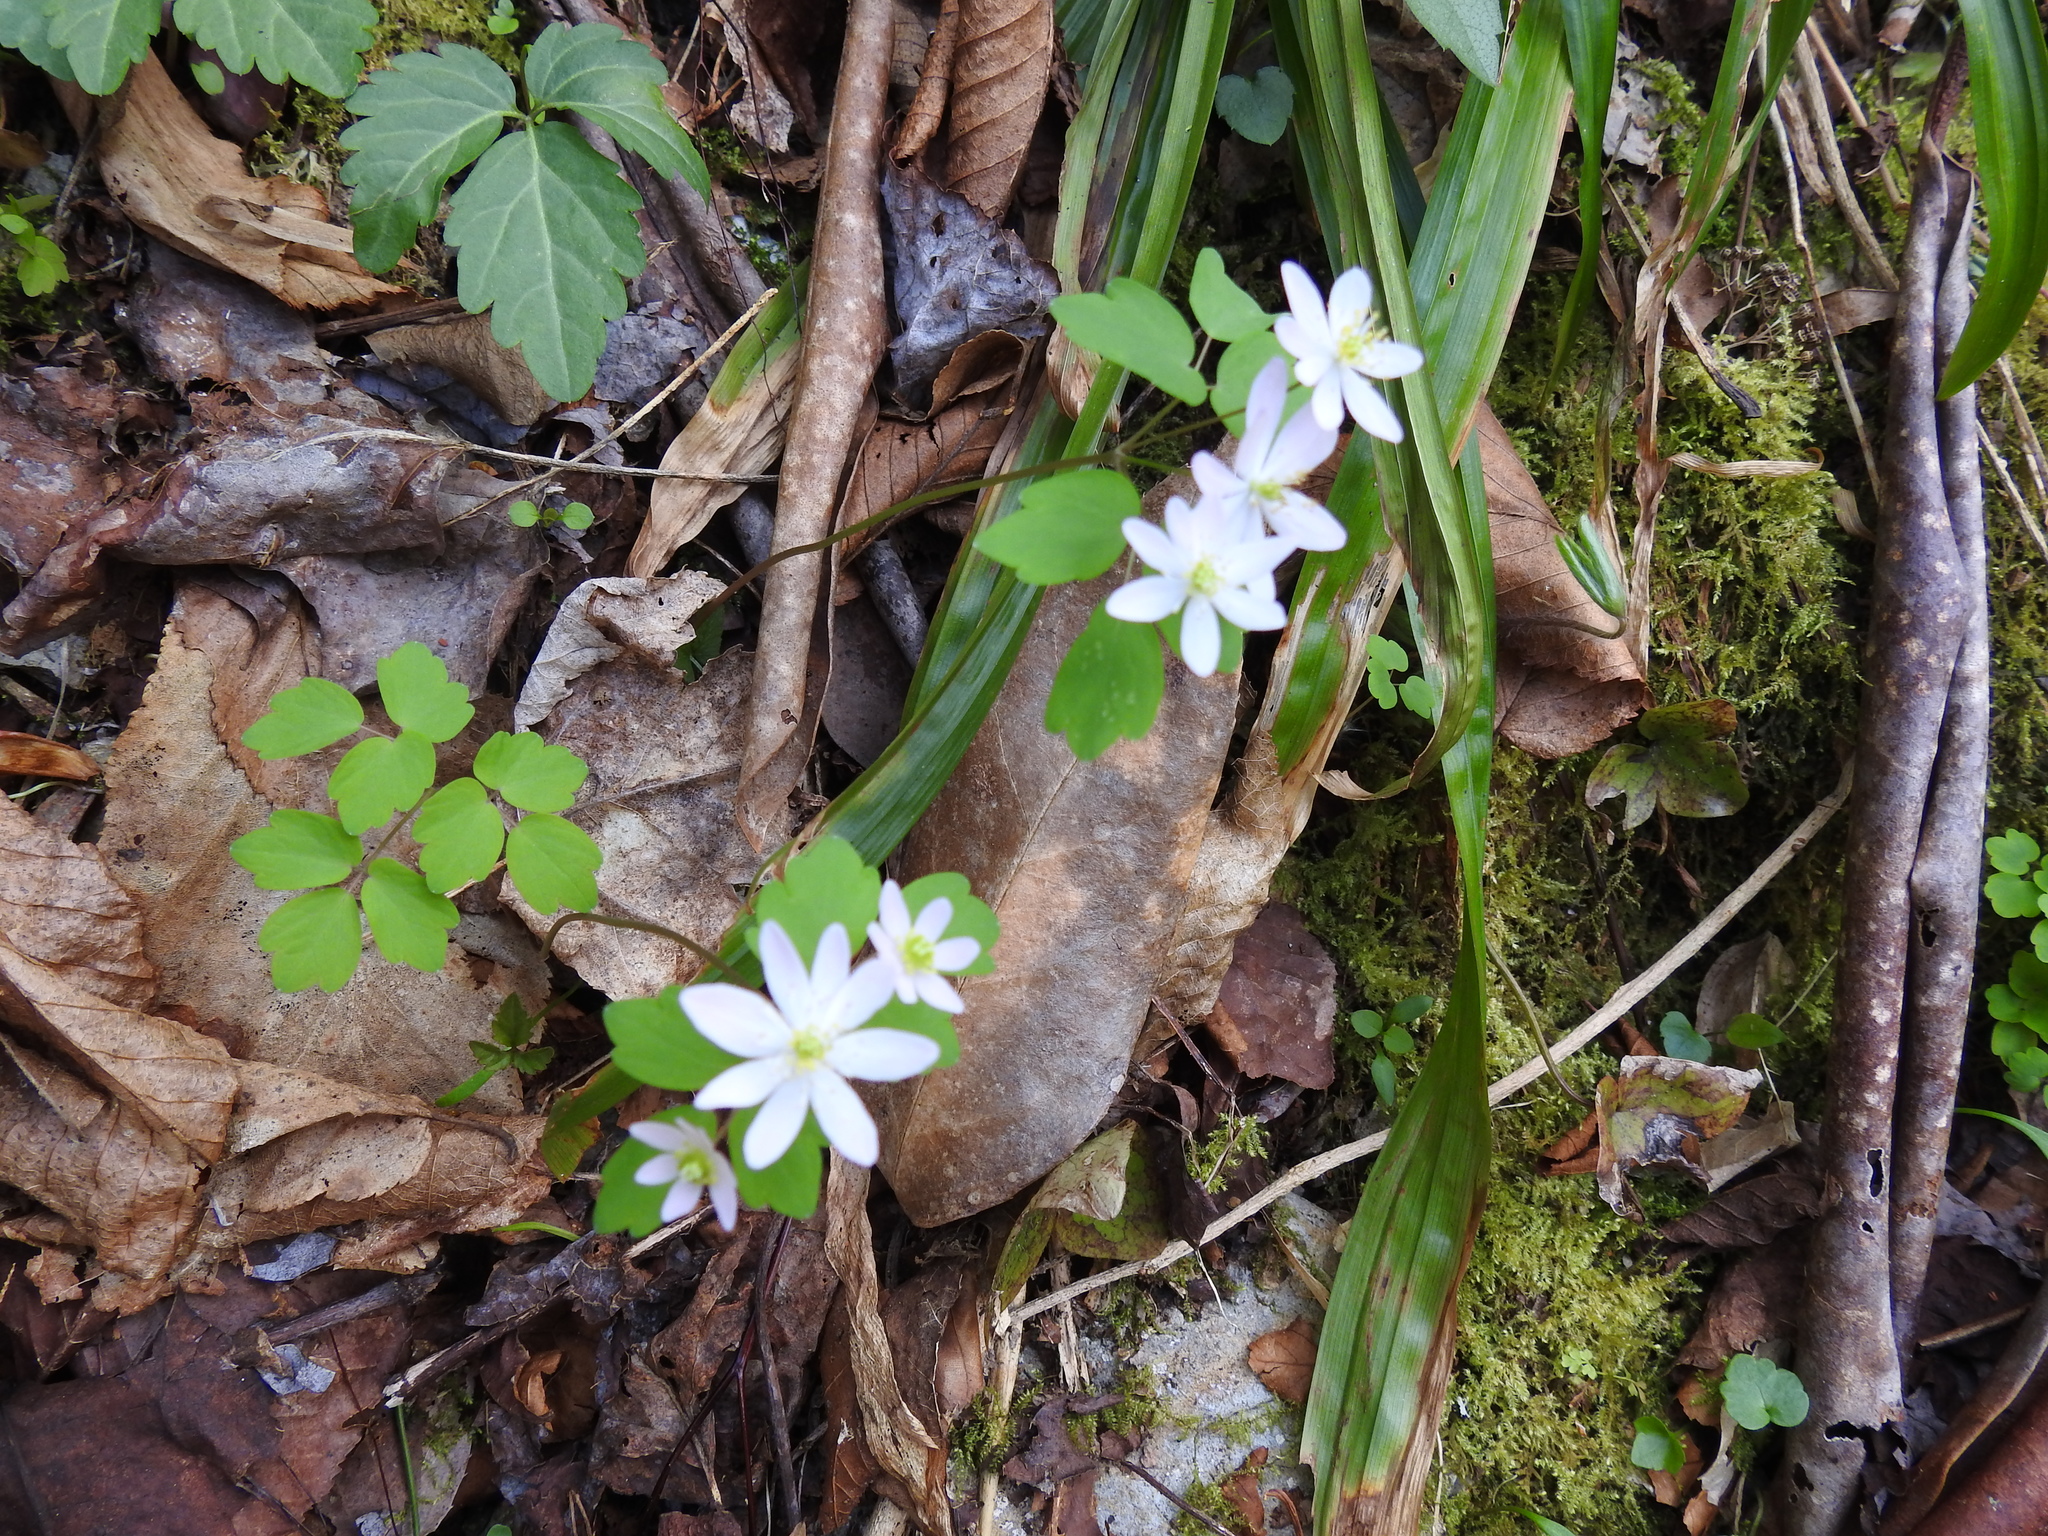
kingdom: Plantae
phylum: Tracheophyta
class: Magnoliopsida
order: Ranunculales
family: Ranunculaceae
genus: Thalictrum
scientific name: Thalictrum thalictroides
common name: Rue-anemone
